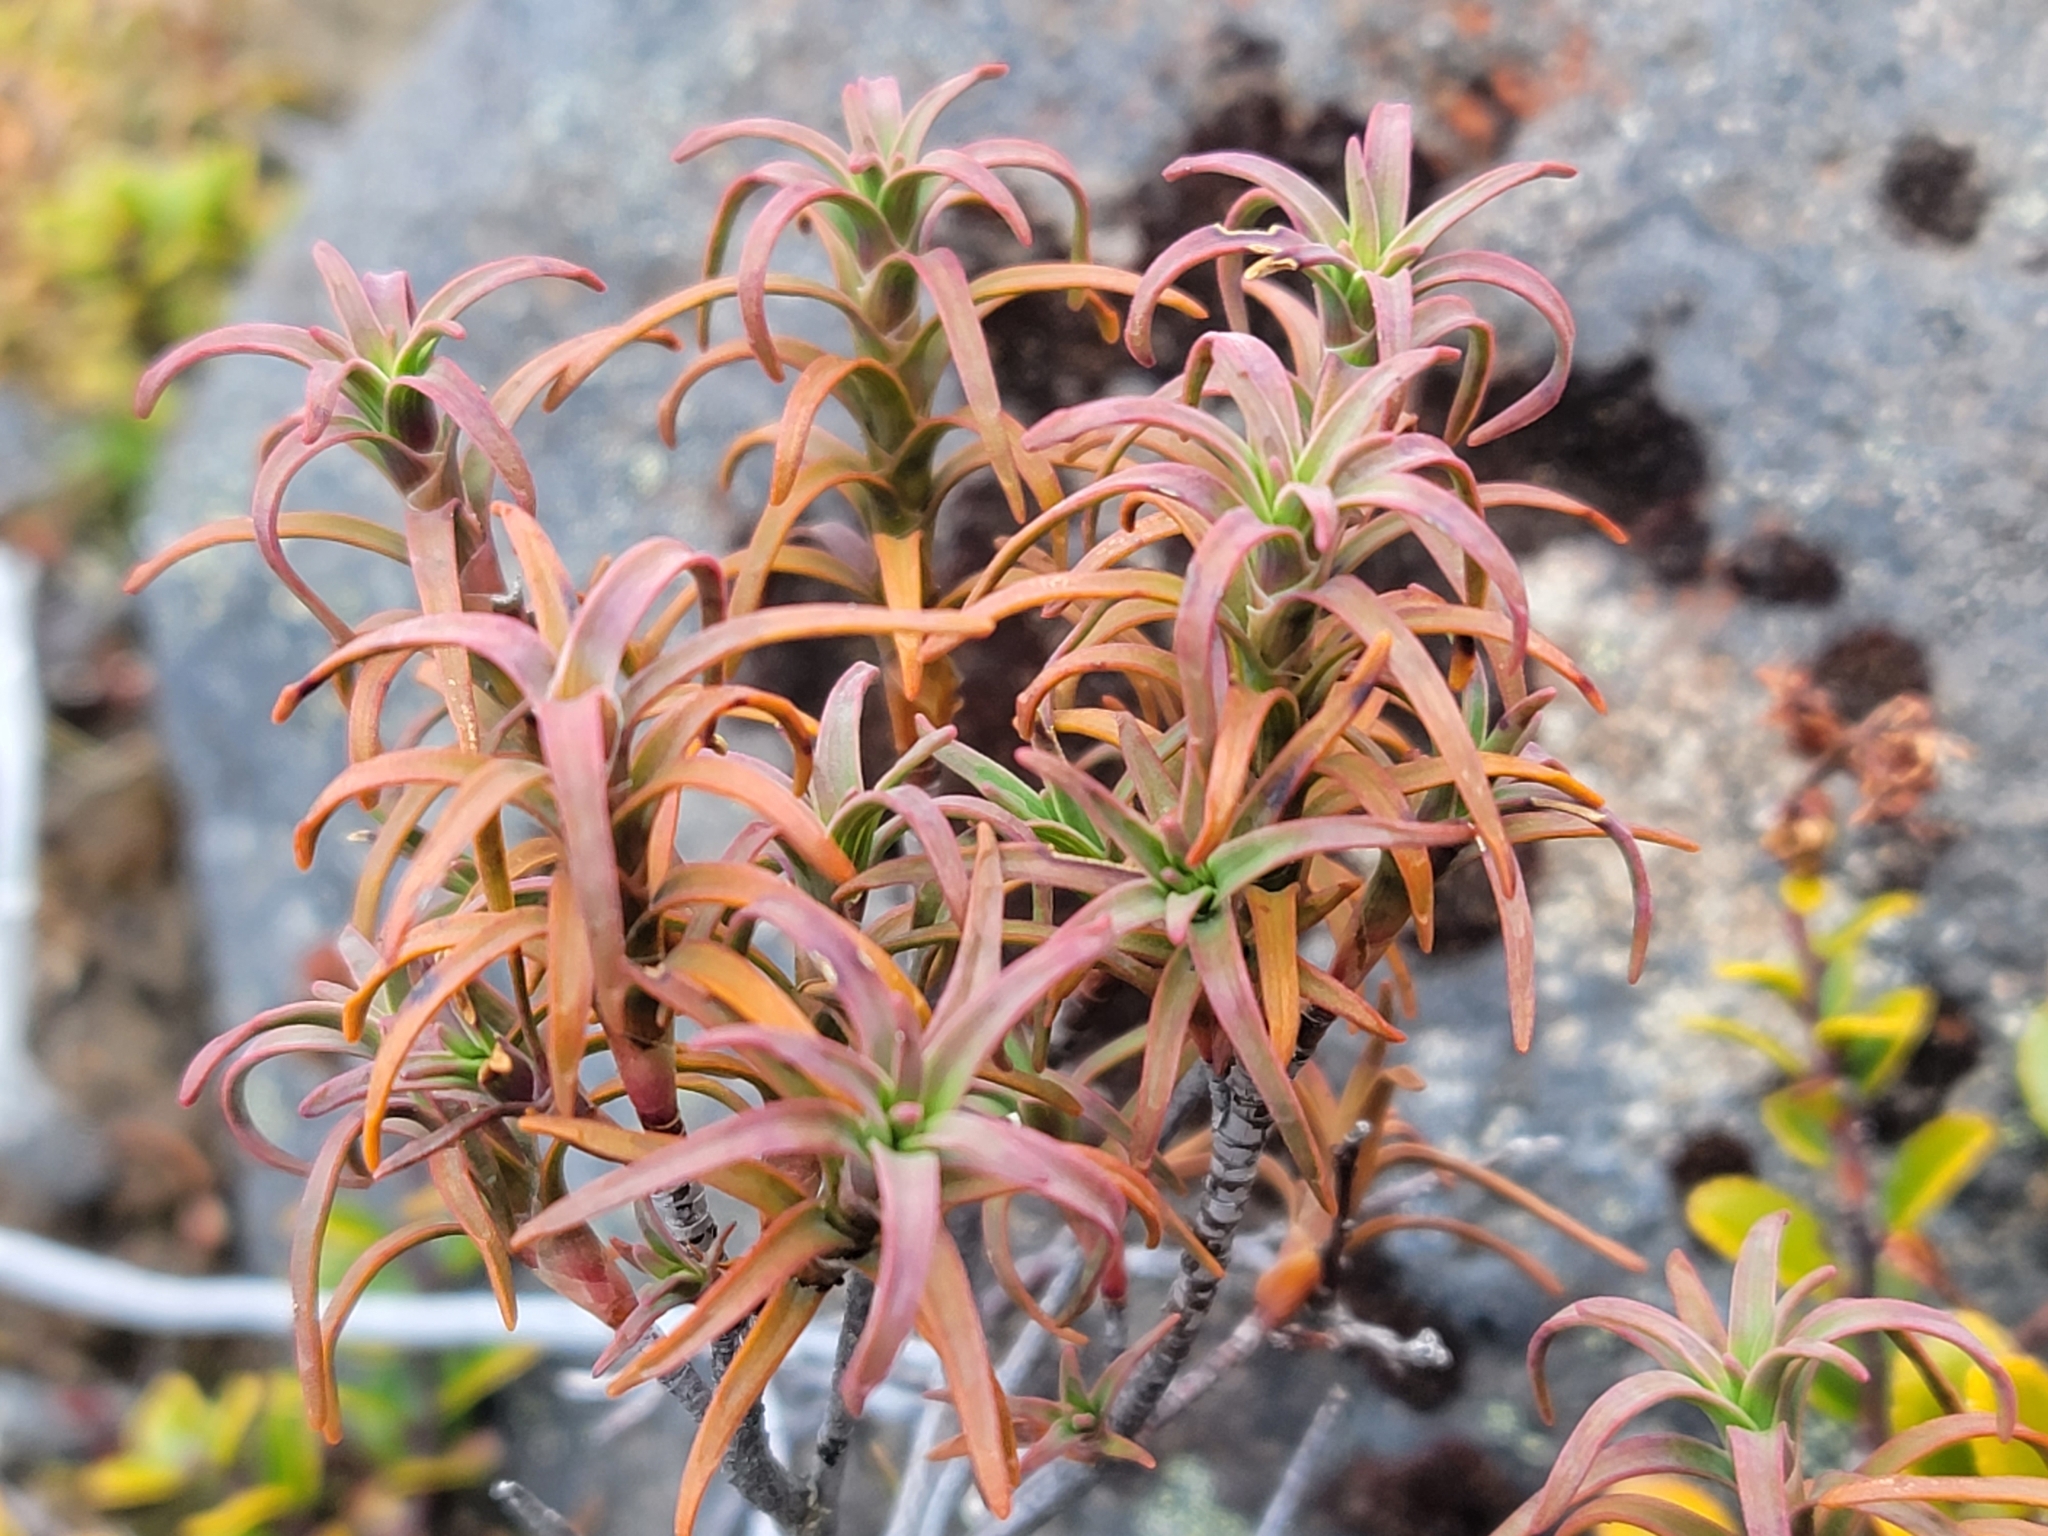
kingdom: Plantae
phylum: Tracheophyta
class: Magnoliopsida
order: Ericales
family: Ericaceae
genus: Dracophyllum
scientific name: Dracophyllum recurvum
